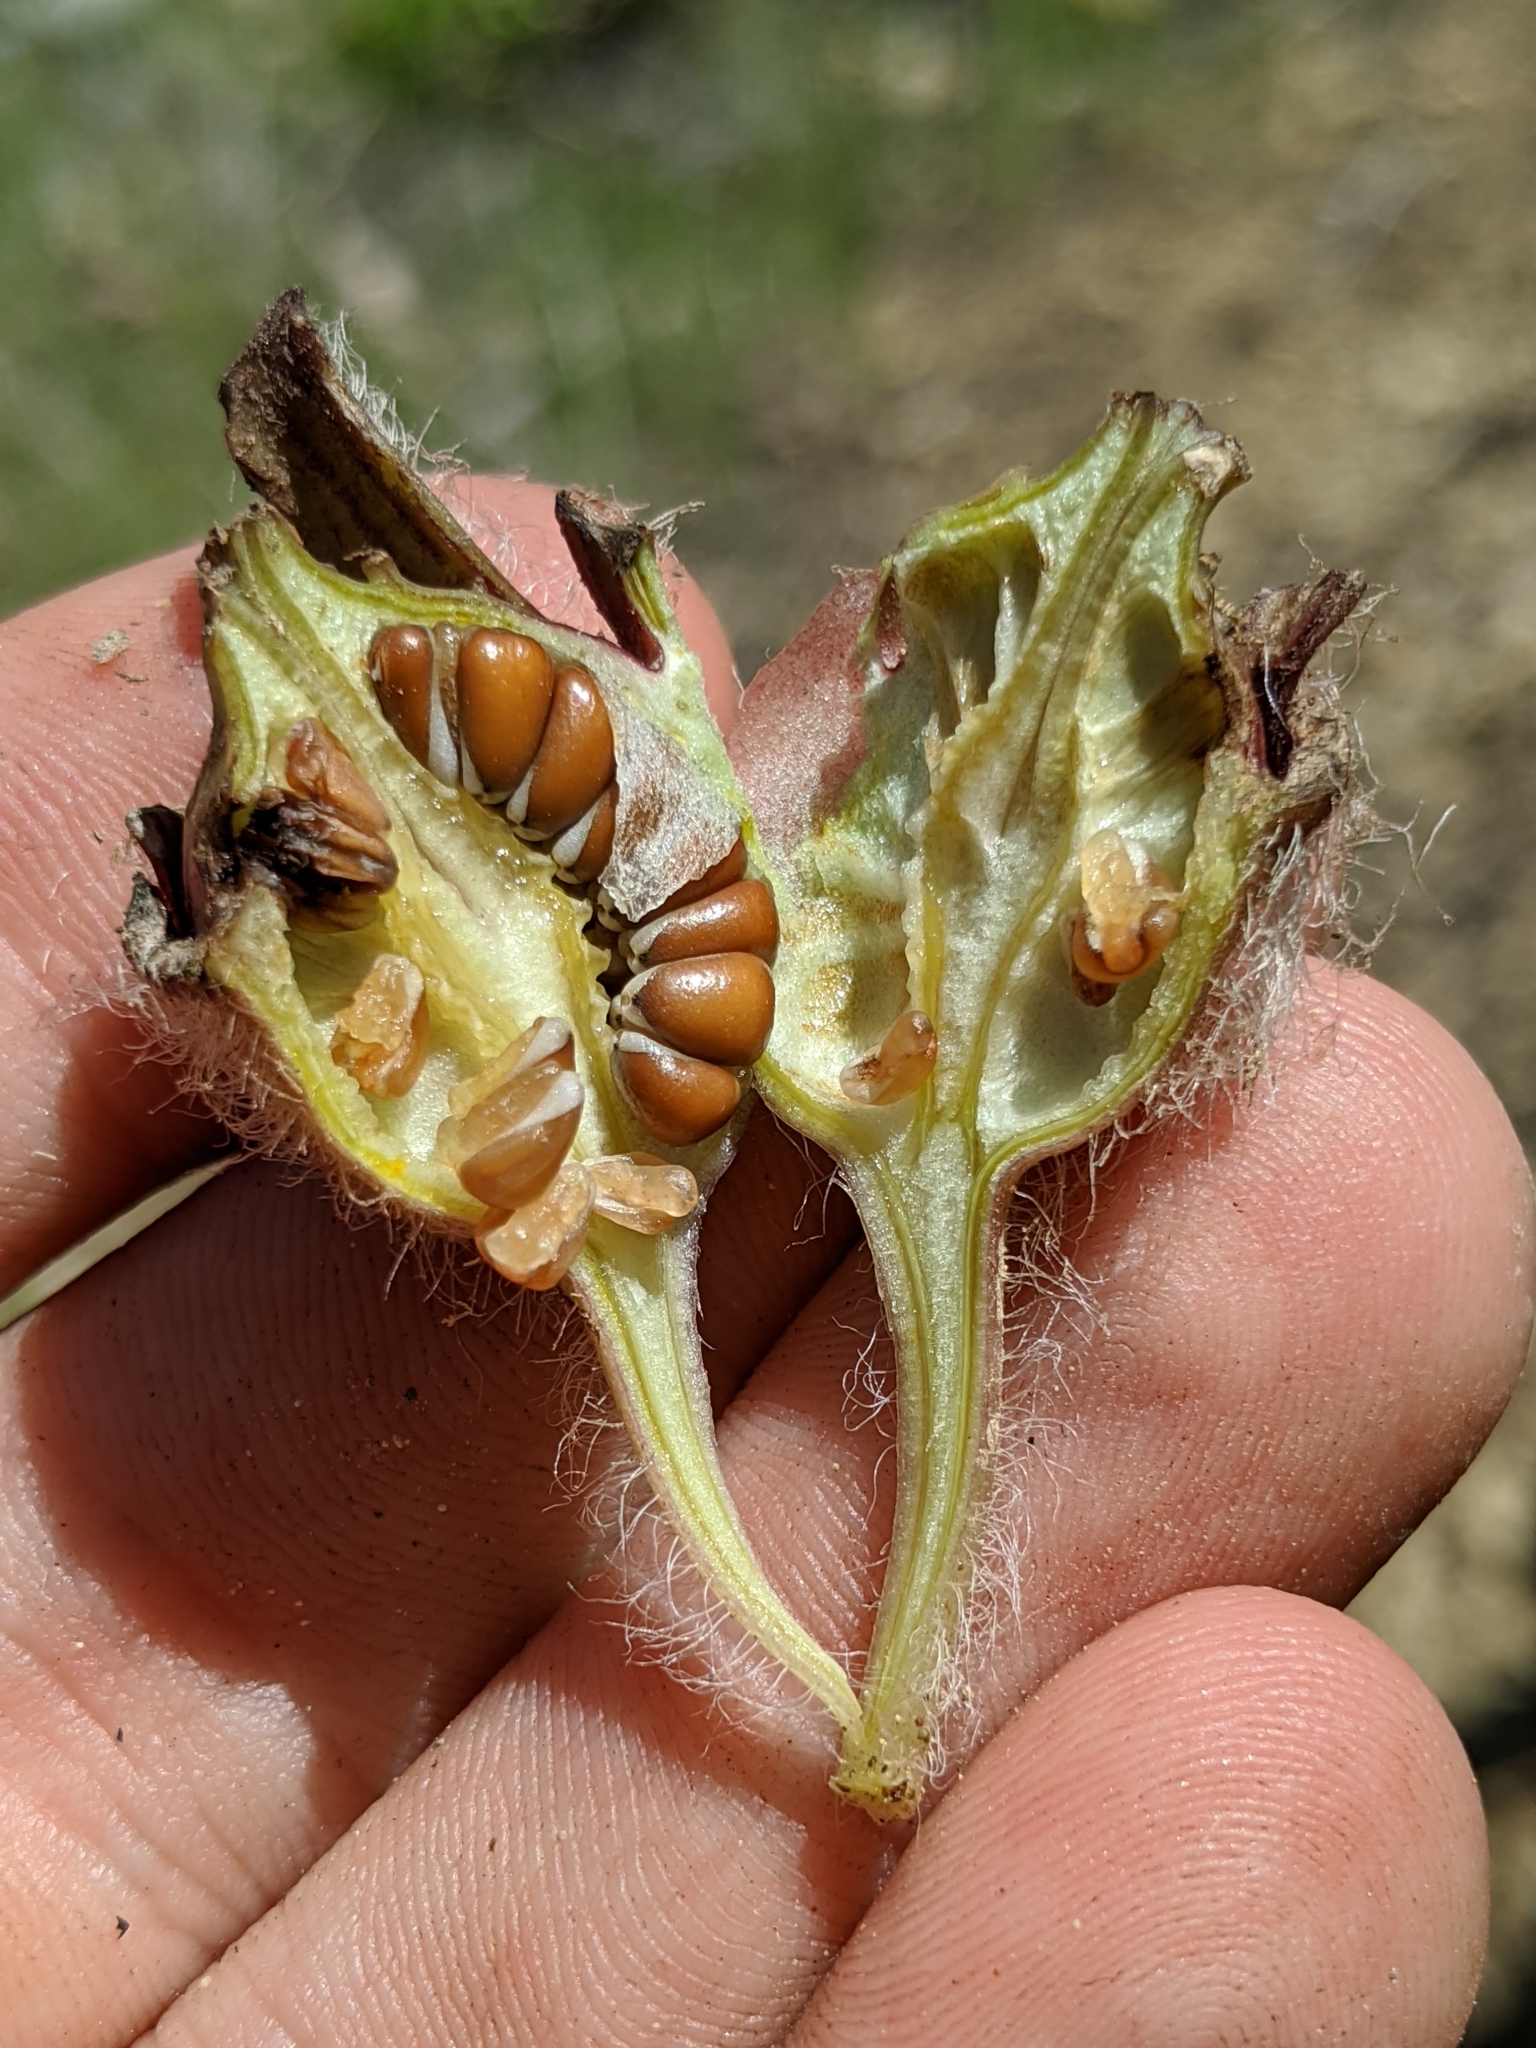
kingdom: Plantae
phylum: Tracheophyta
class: Magnoliopsida
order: Piperales
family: Aristolochiaceae
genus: Asarum
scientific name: Asarum hartwegii
